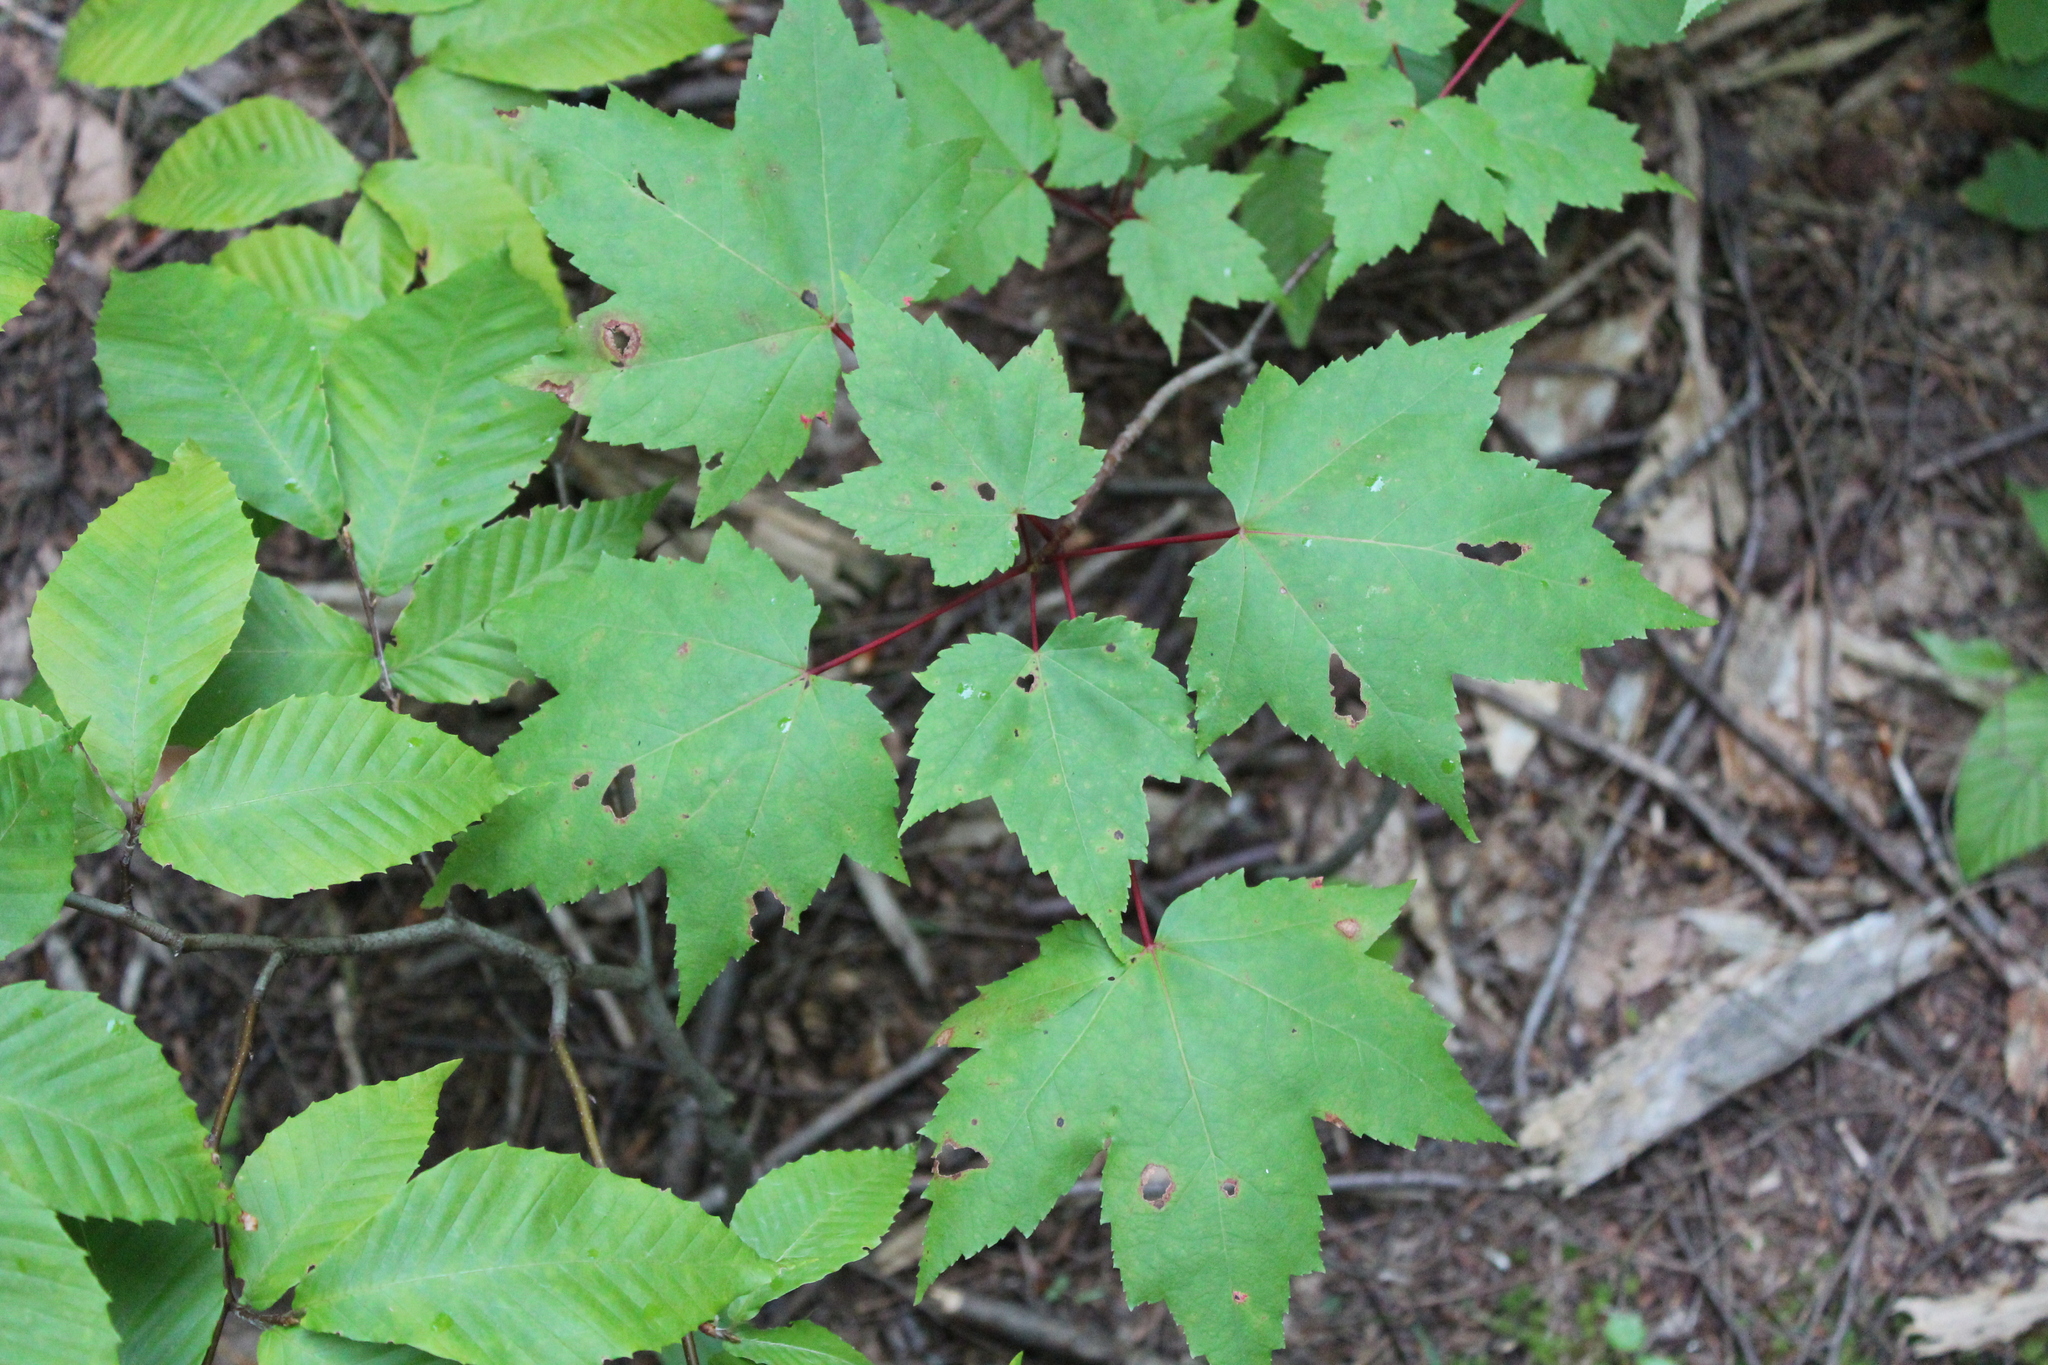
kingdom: Plantae
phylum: Tracheophyta
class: Magnoliopsida
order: Sapindales
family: Sapindaceae
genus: Acer
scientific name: Acer rubrum
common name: Red maple
